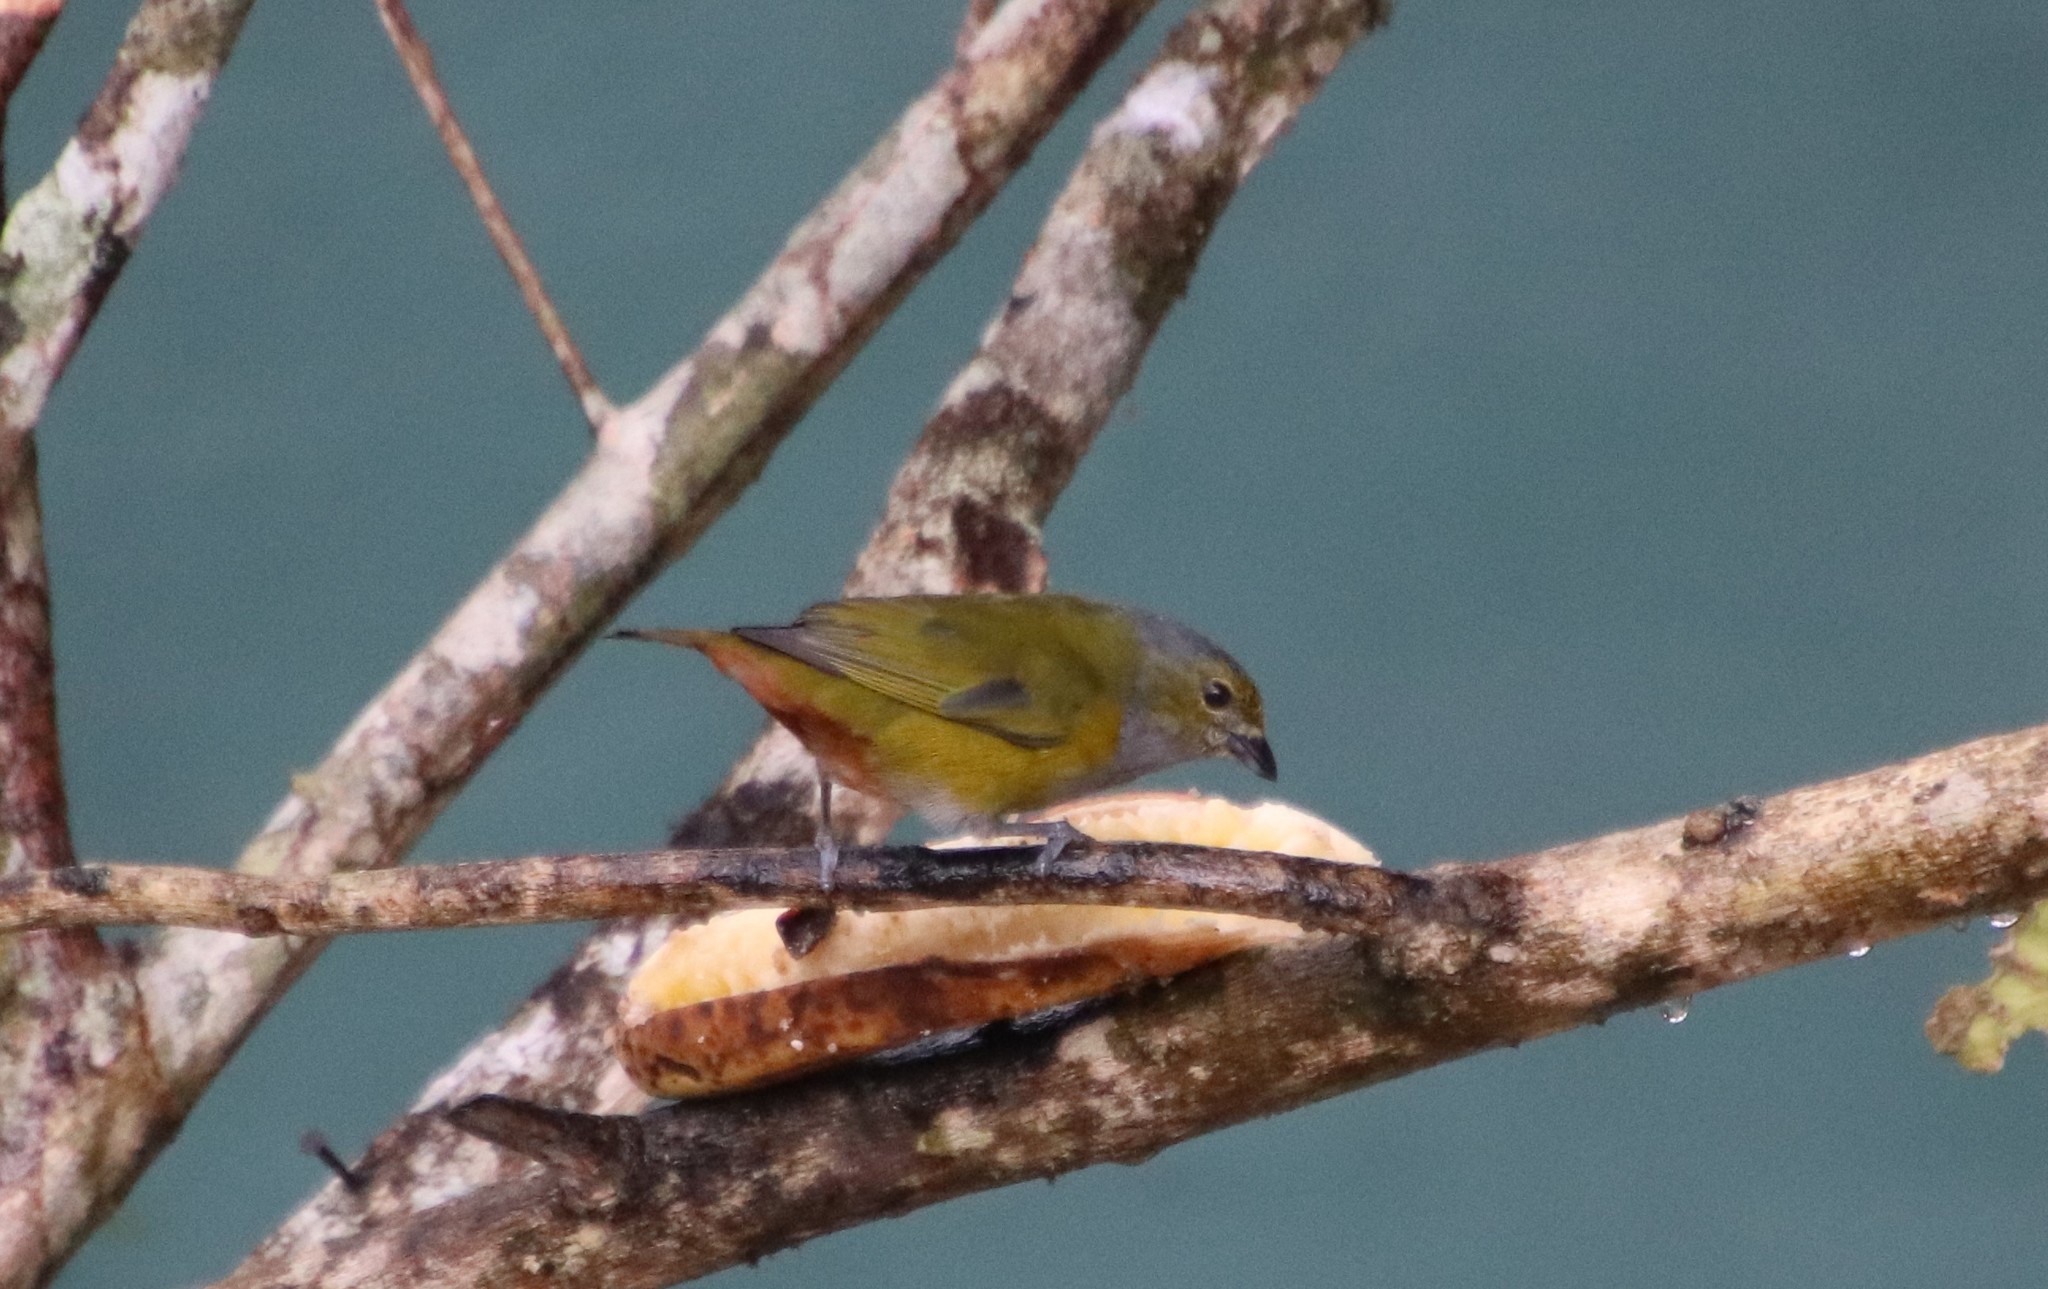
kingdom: Animalia
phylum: Chordata
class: Aves
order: Passeriformes
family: Fringillidae
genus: Euphonia
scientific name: Euphonia pectoralis
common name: Chestnut-bellied euphonia
